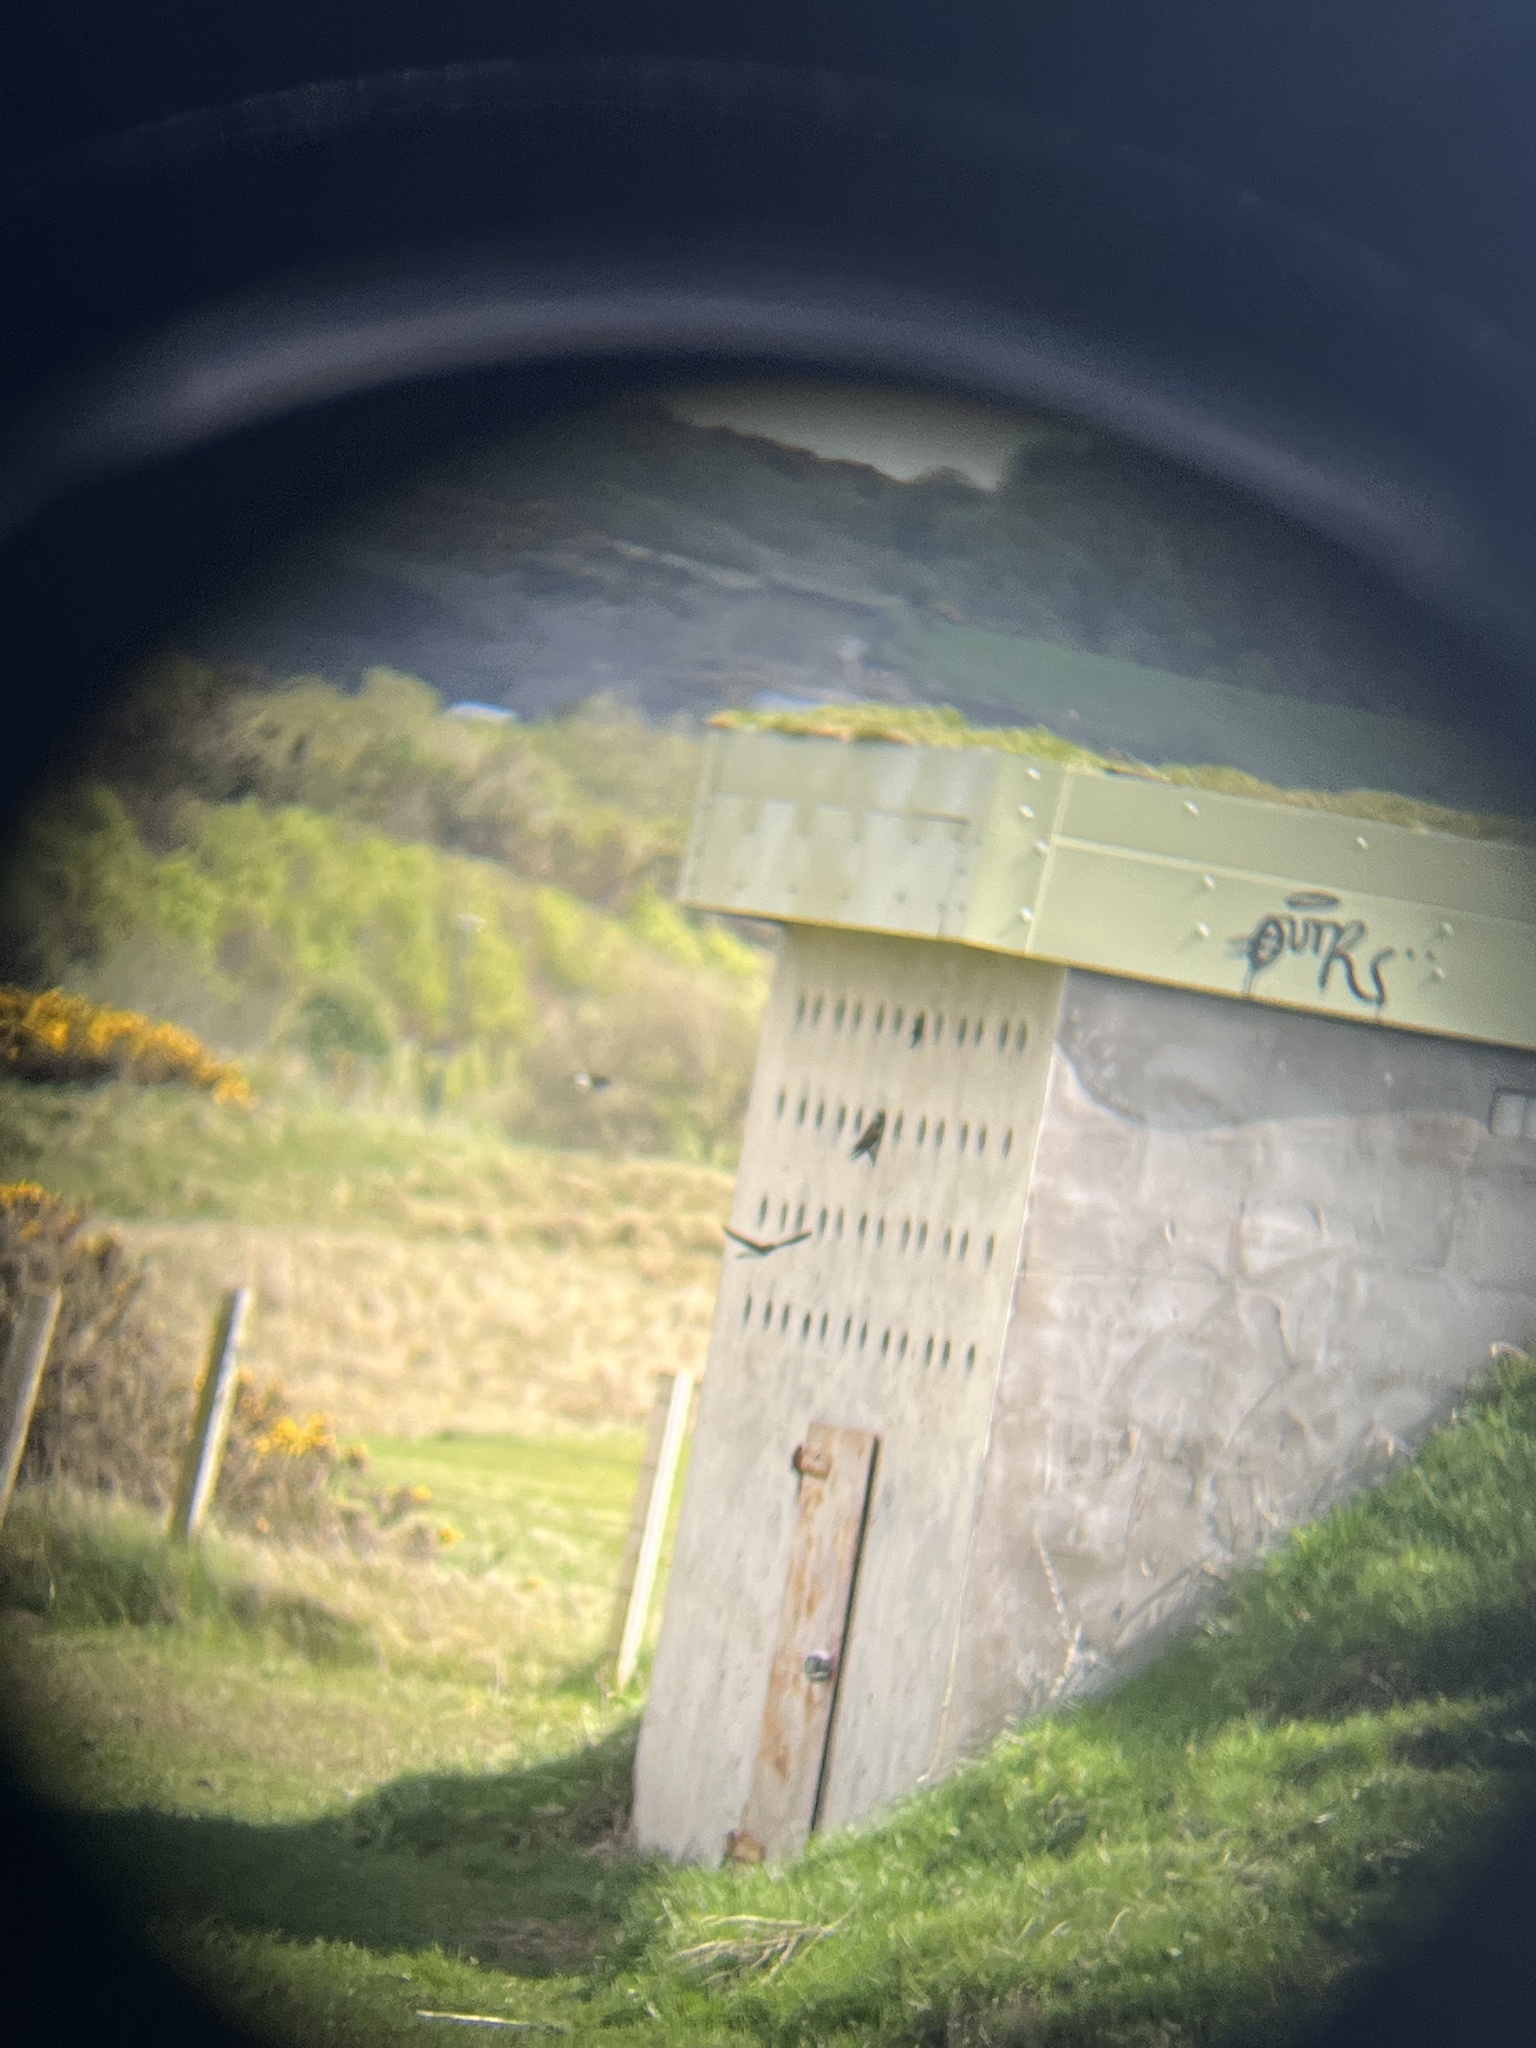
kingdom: Animalia
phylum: Chordata
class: Aves
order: Passeriformes
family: Hirundinidae
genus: Riparia
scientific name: Riparia riparia
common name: Sand martin
